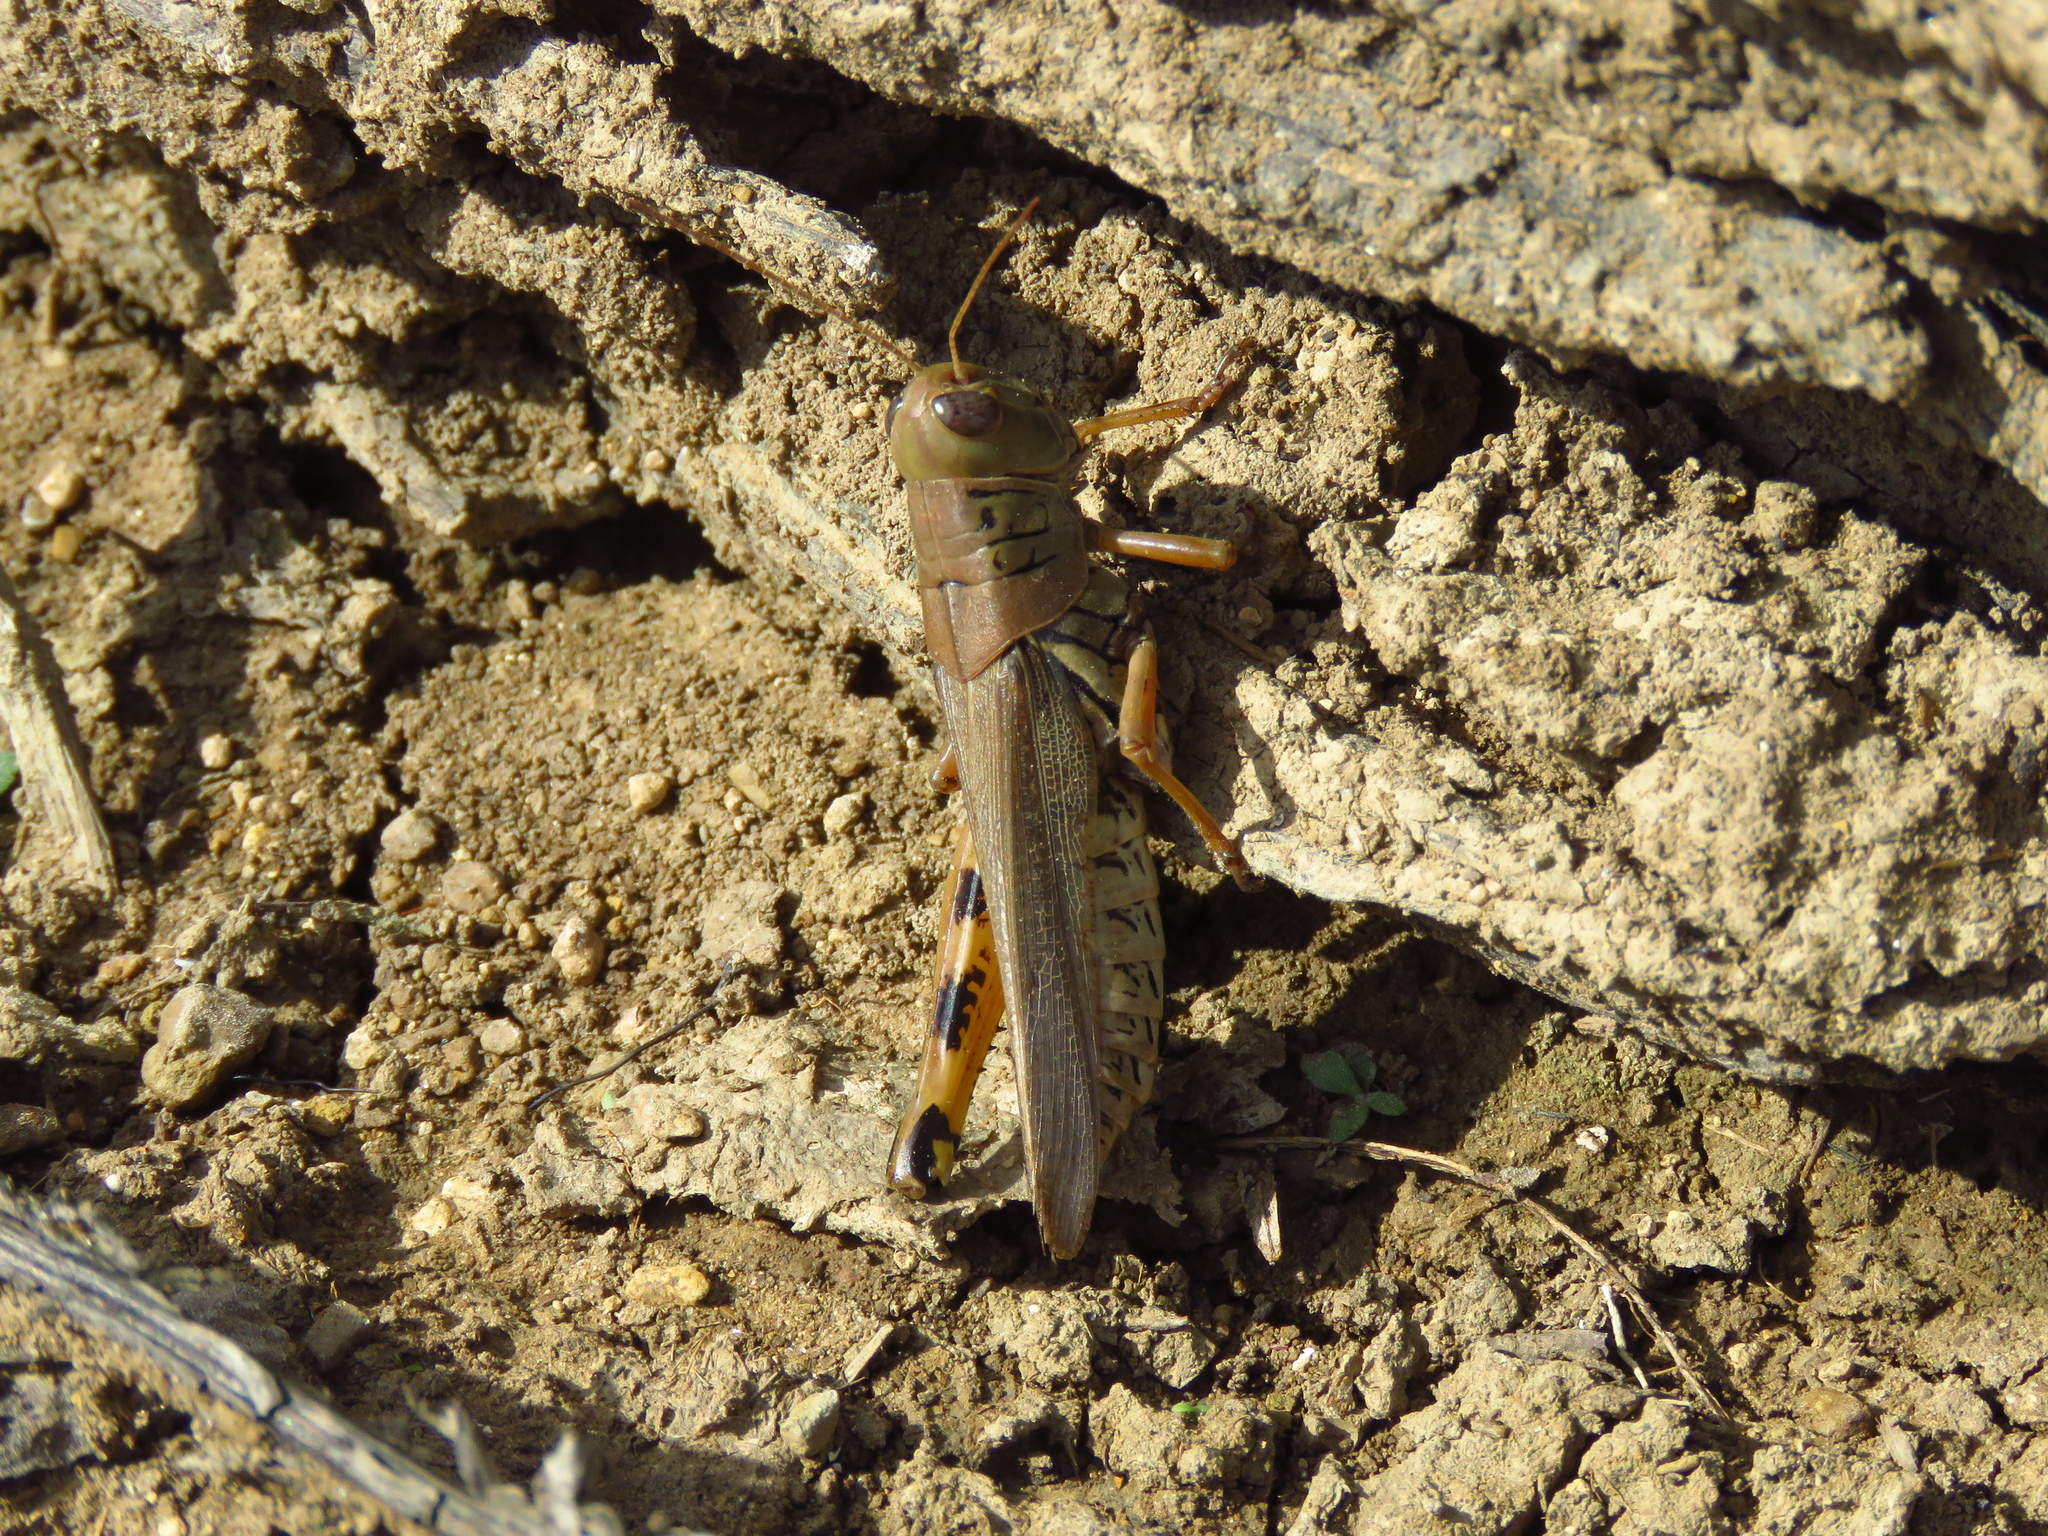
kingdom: Animalia
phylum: Arthropoda
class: Insecta
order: Orthoptera
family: Acrididae
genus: Melanoplus
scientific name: Melanoplus differentialis
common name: Differential grasshopper
